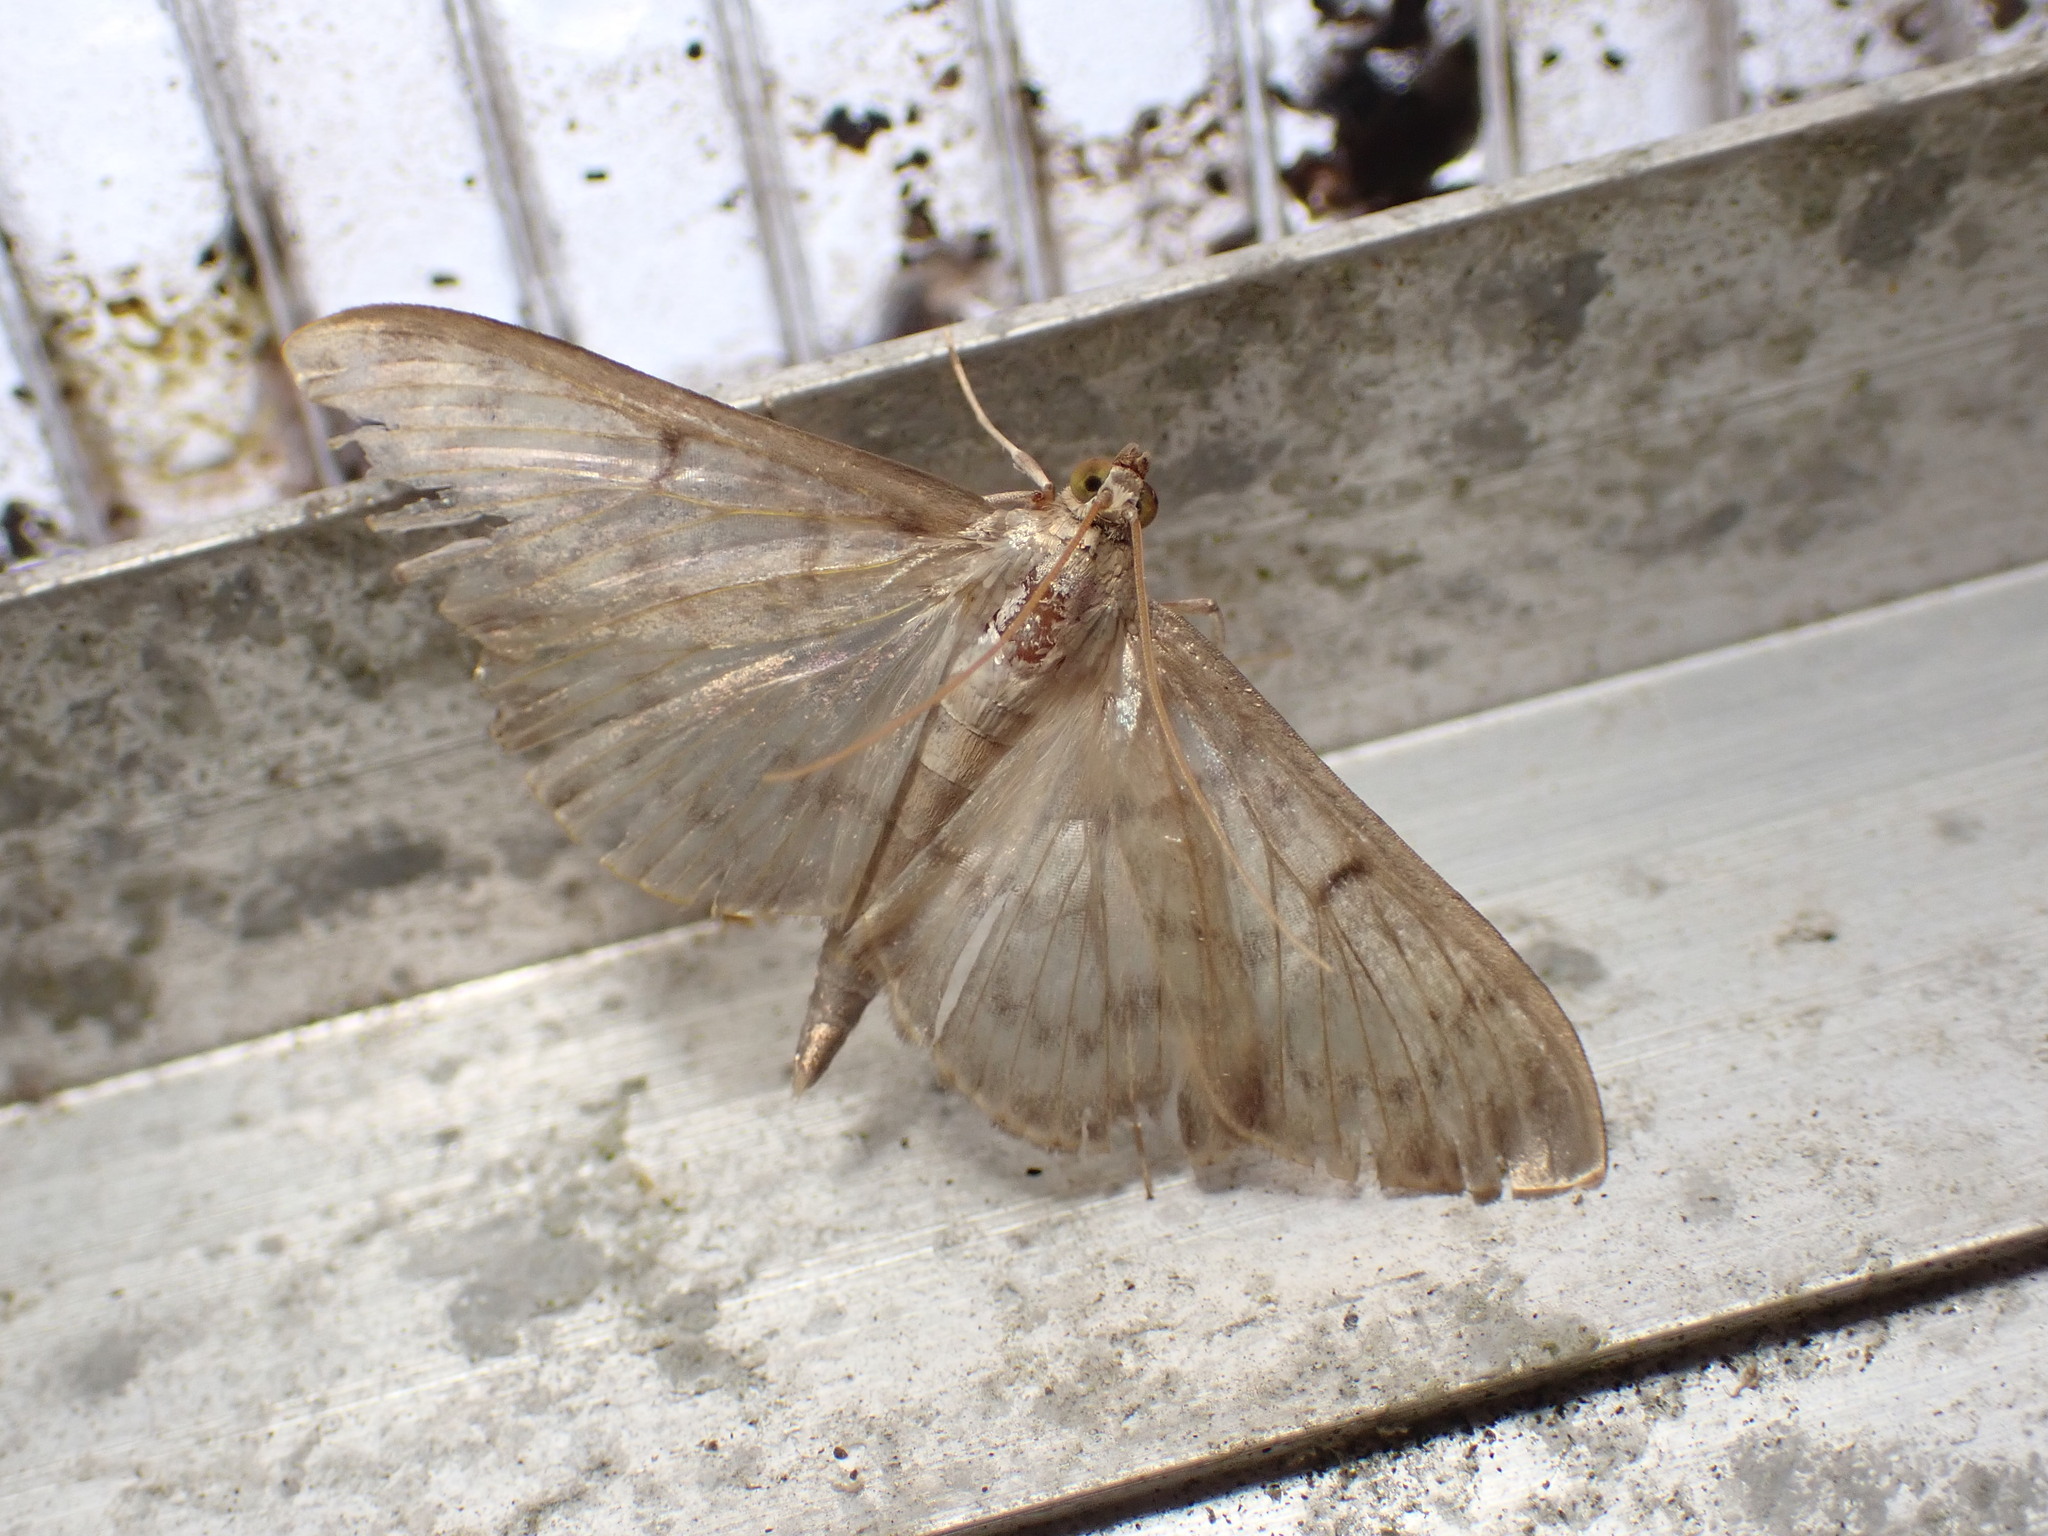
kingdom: Animalia
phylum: Arthropoda
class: Insecta
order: Lepidoptera
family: Crambidae
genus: Patania
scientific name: Patania ruralis
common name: Mother of pearl
